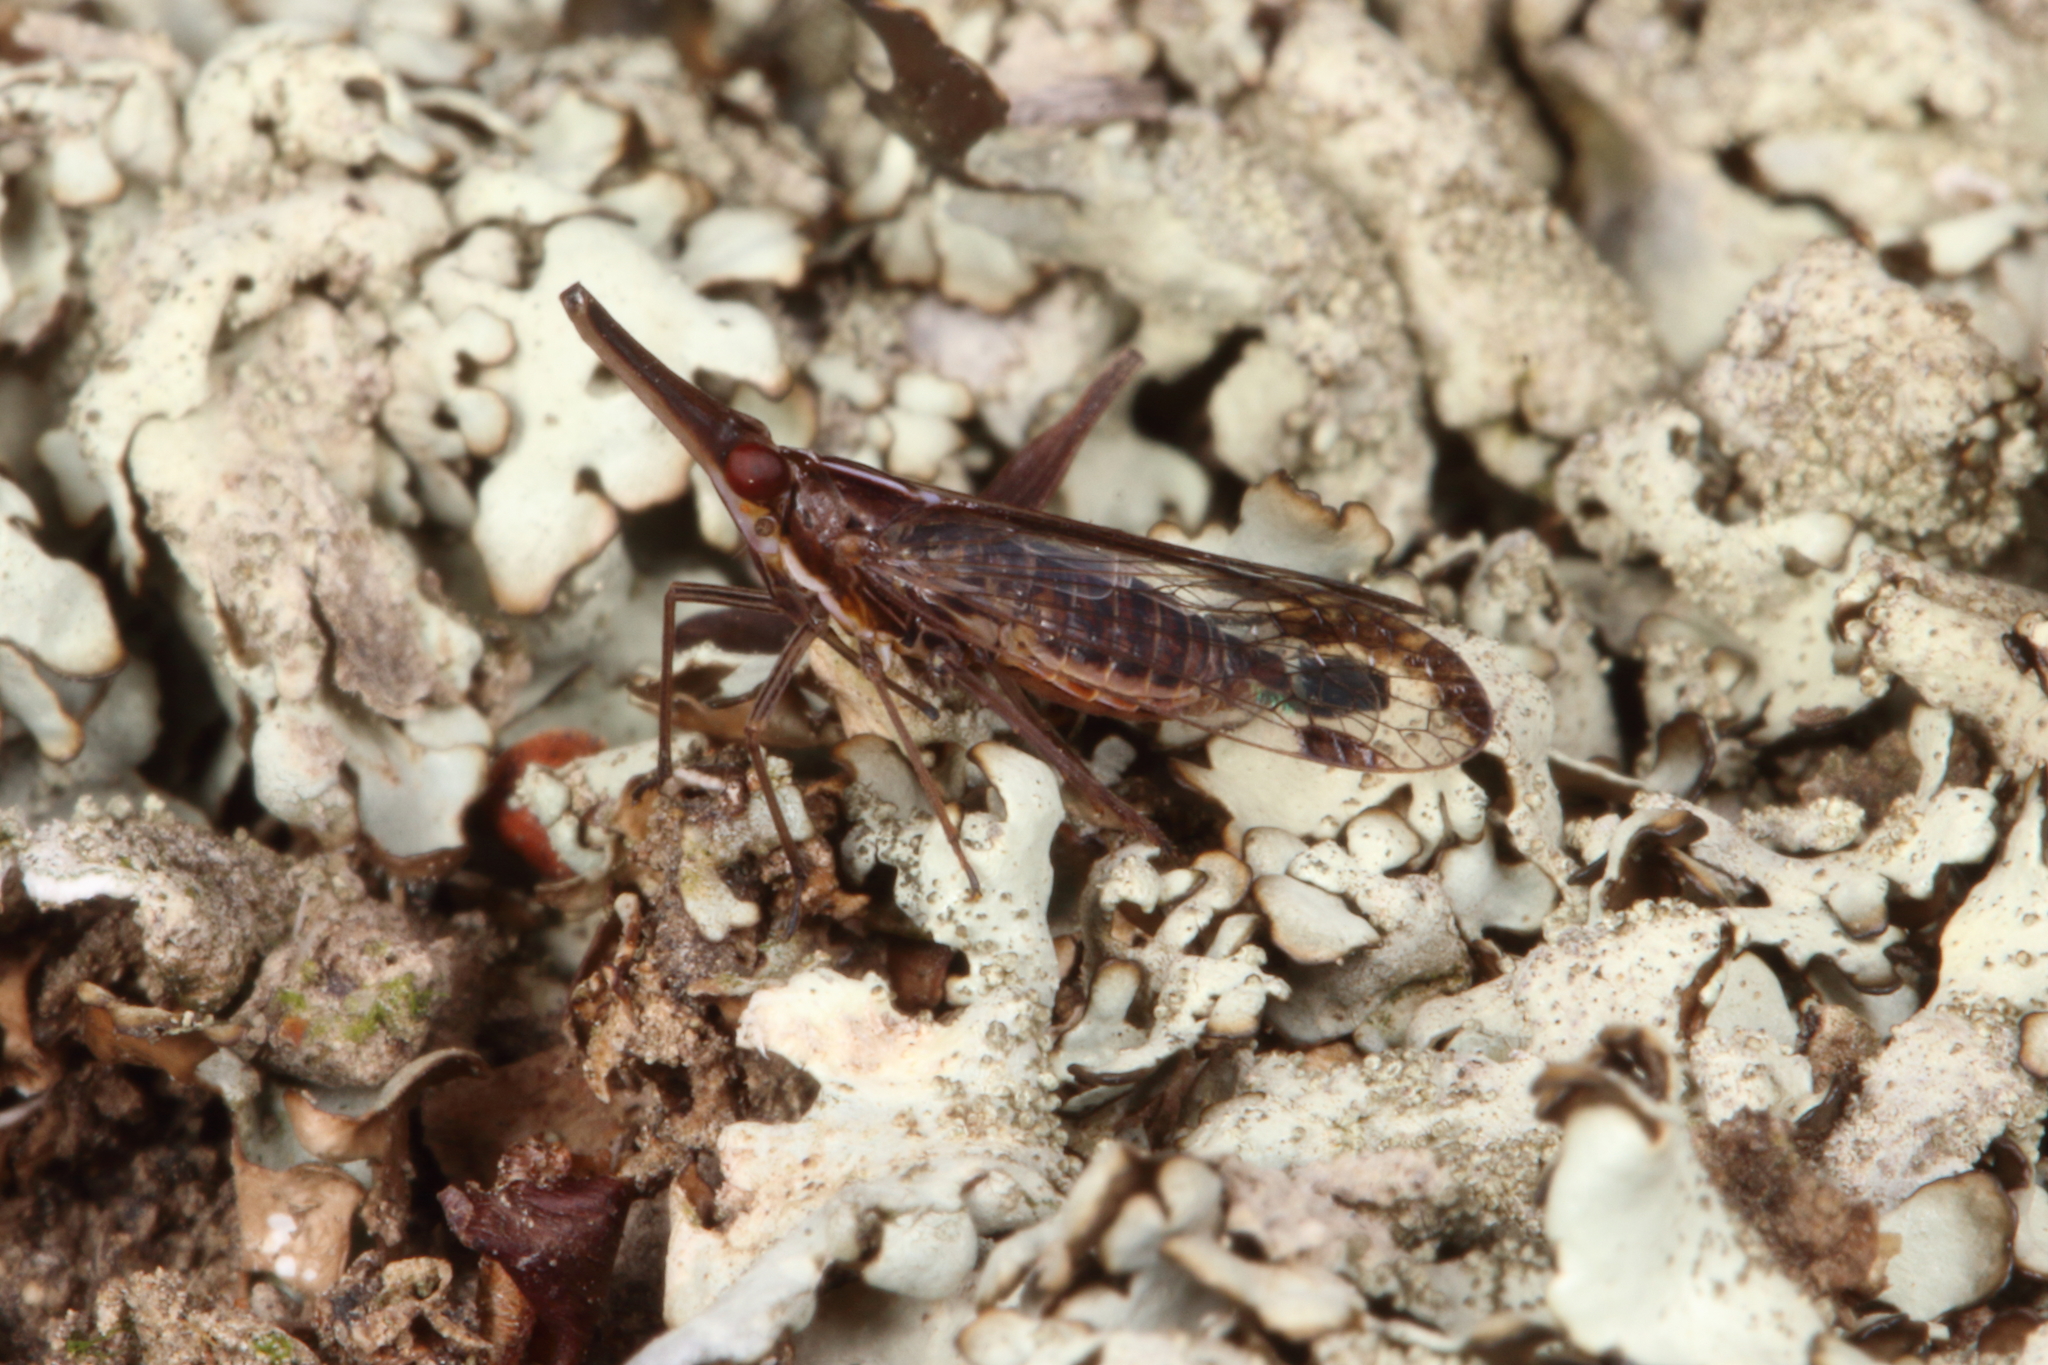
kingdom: Animalia
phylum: Arthropoda
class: Insecta
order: Hemiptera
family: Dictyopharidae
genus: Thanatodictya
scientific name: Thanatodictya tillyardi
